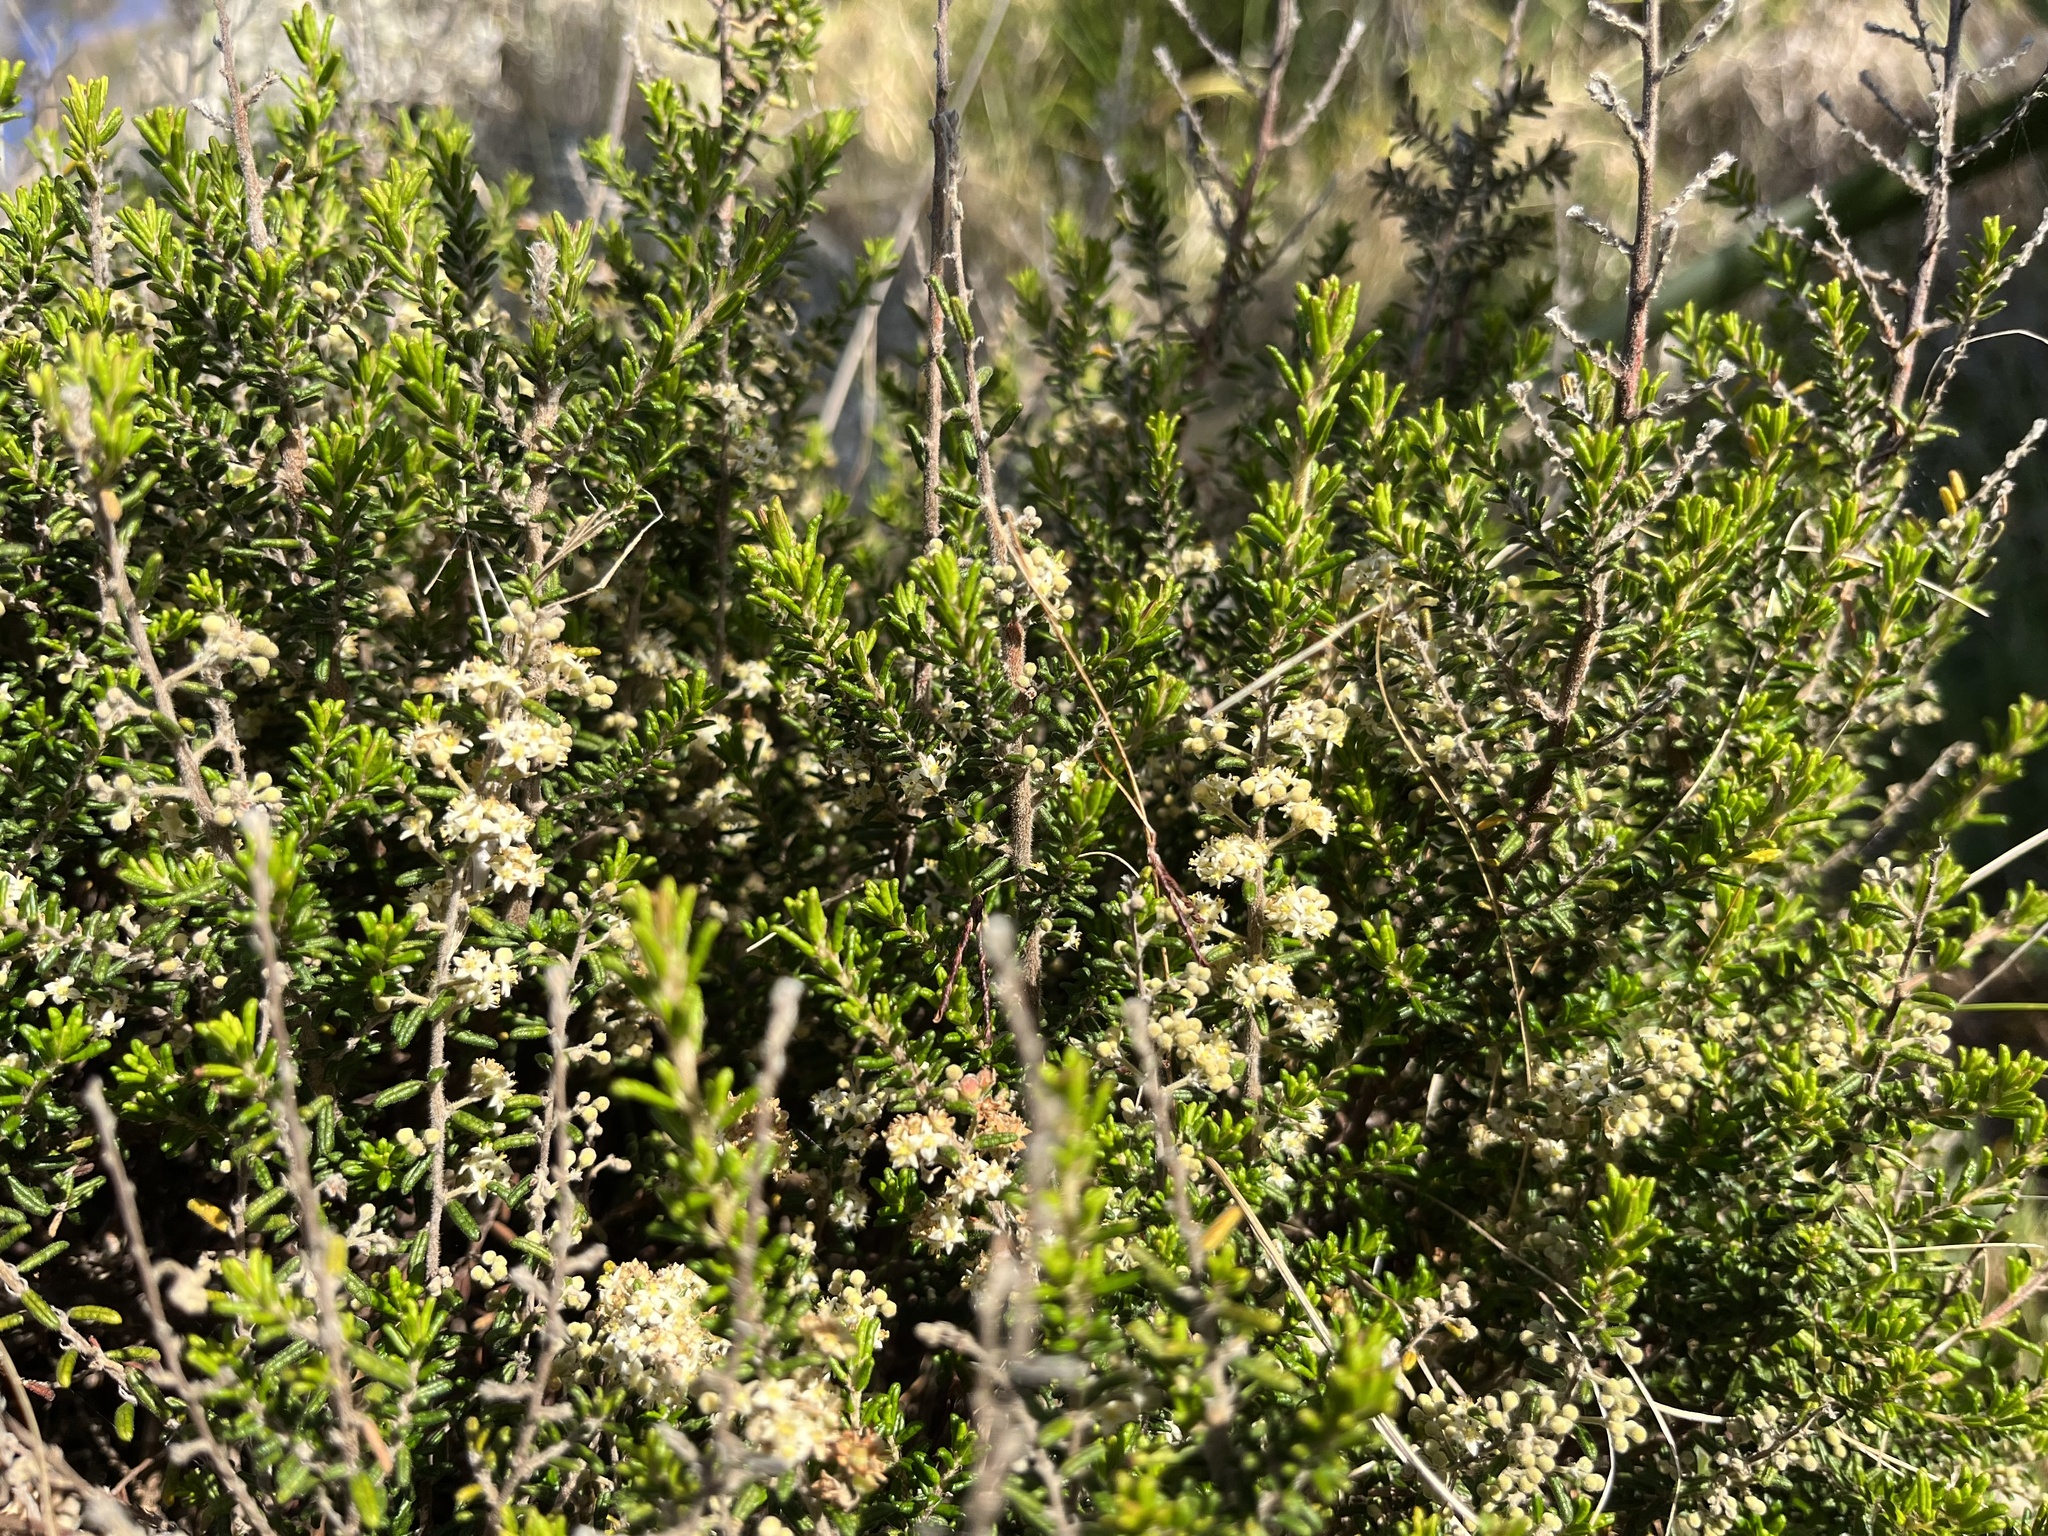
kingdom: Plantae
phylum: Tracheophyta
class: Magnoliopsida
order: Rosales
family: Rhamnaceae
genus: Pomaderris
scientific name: Pomaderris amoena
